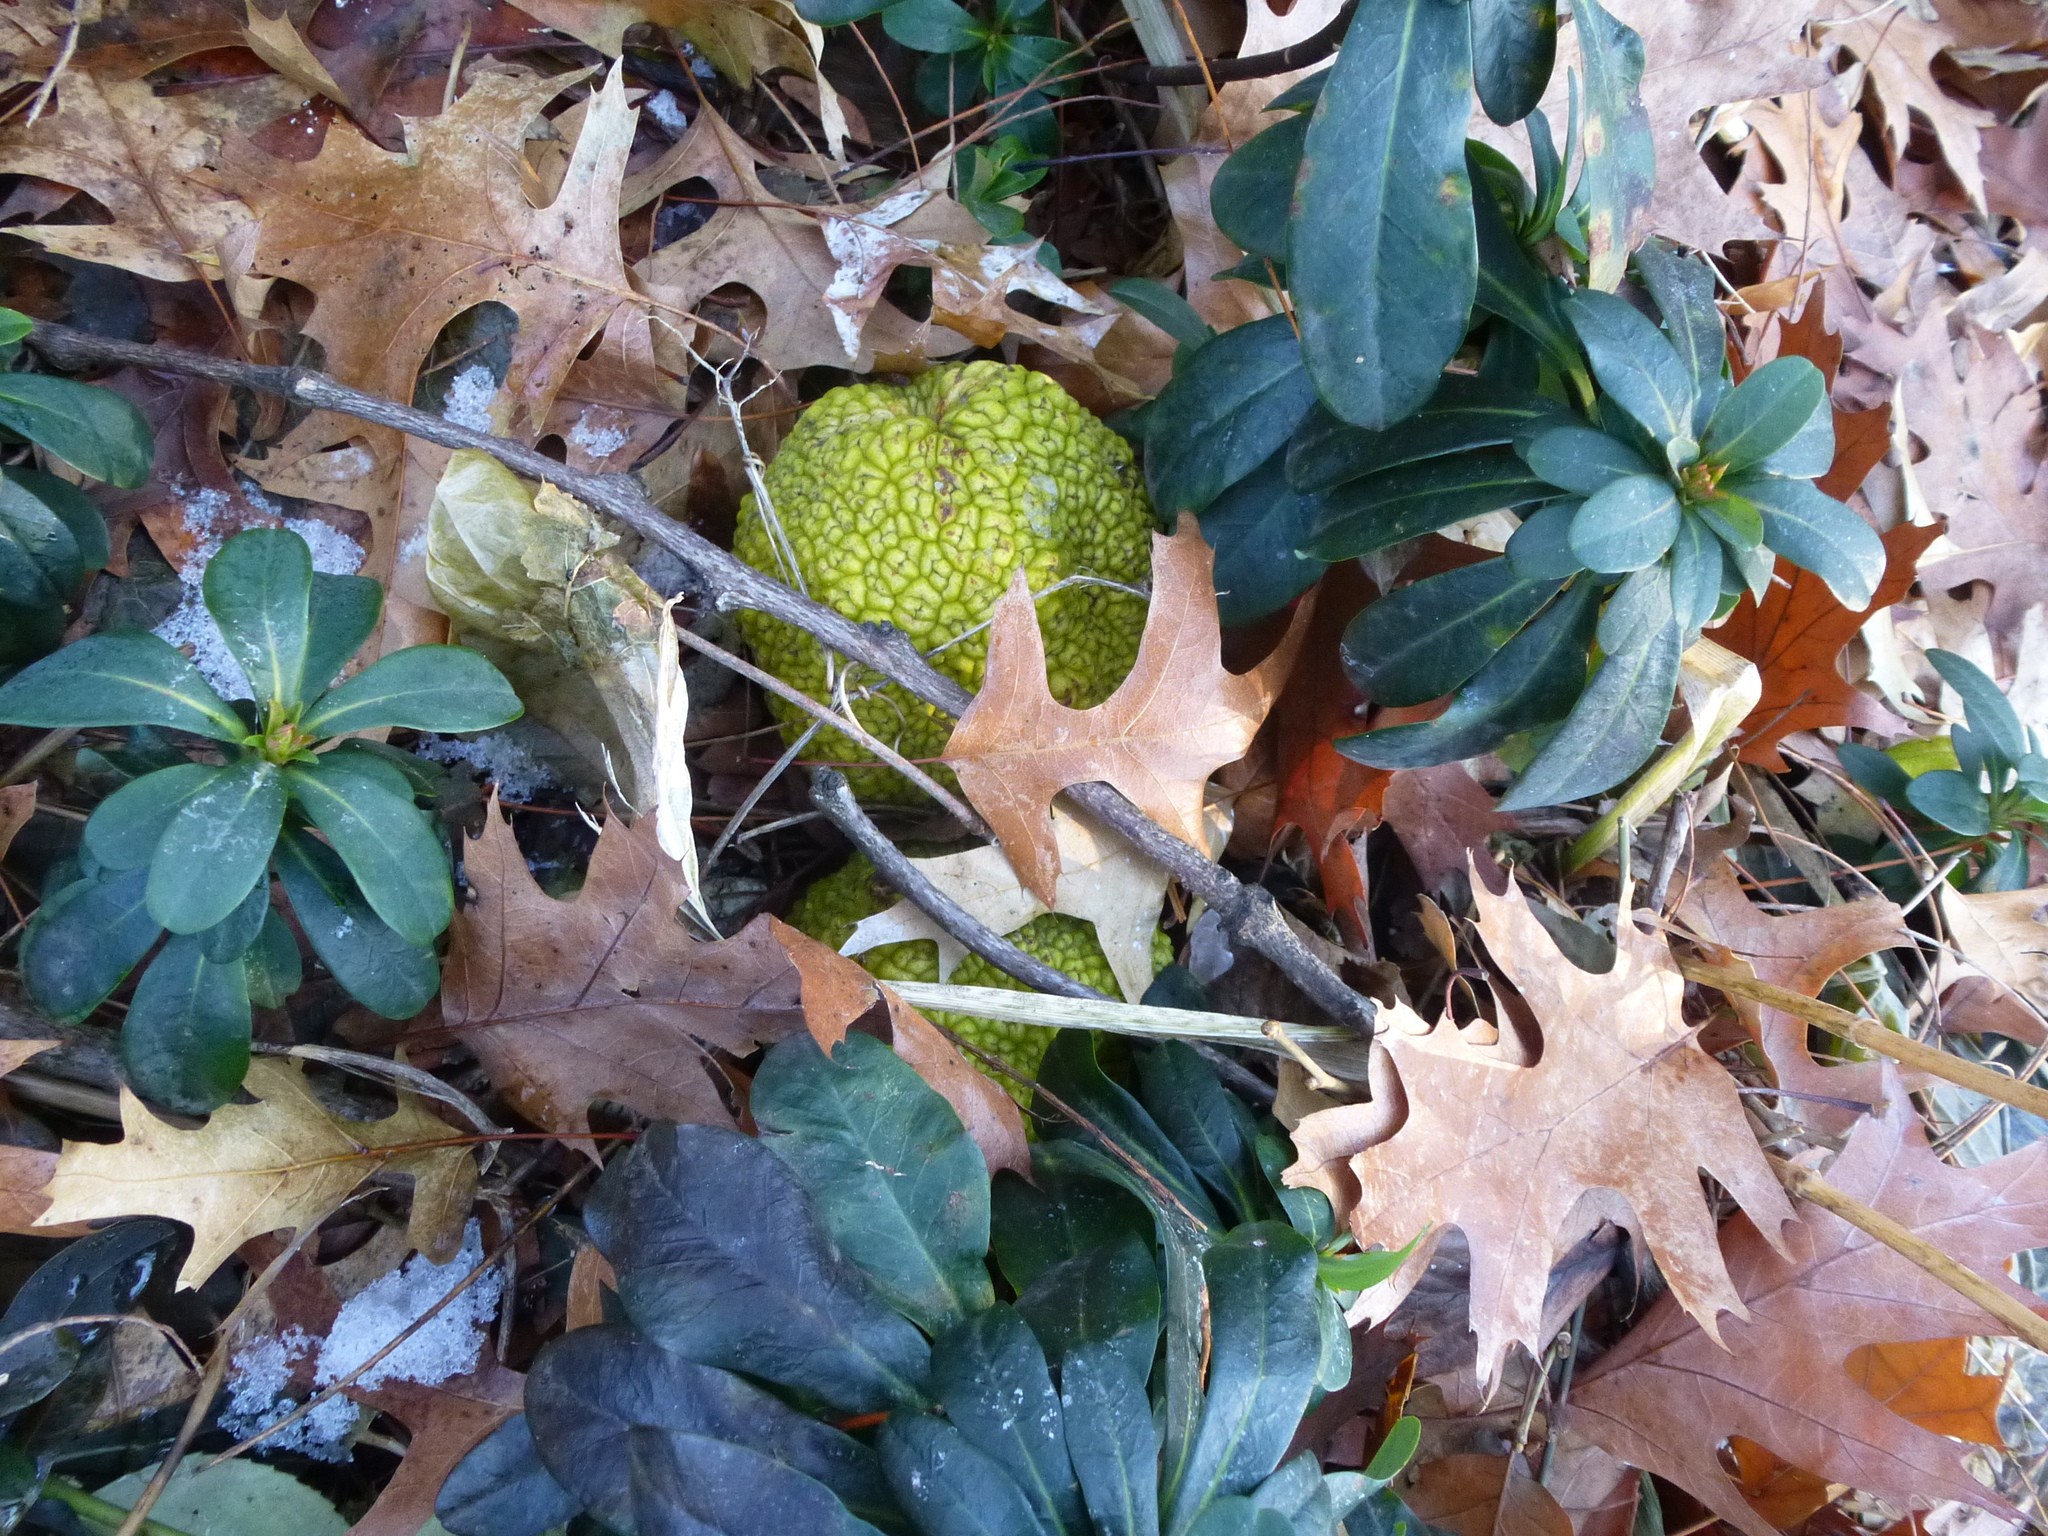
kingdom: Plantae
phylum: Tracheophyta
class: Magnoliopsida
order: Rosales
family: Moraceae
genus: Maclura
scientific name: Maclura pomifera
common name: Osage-orange
